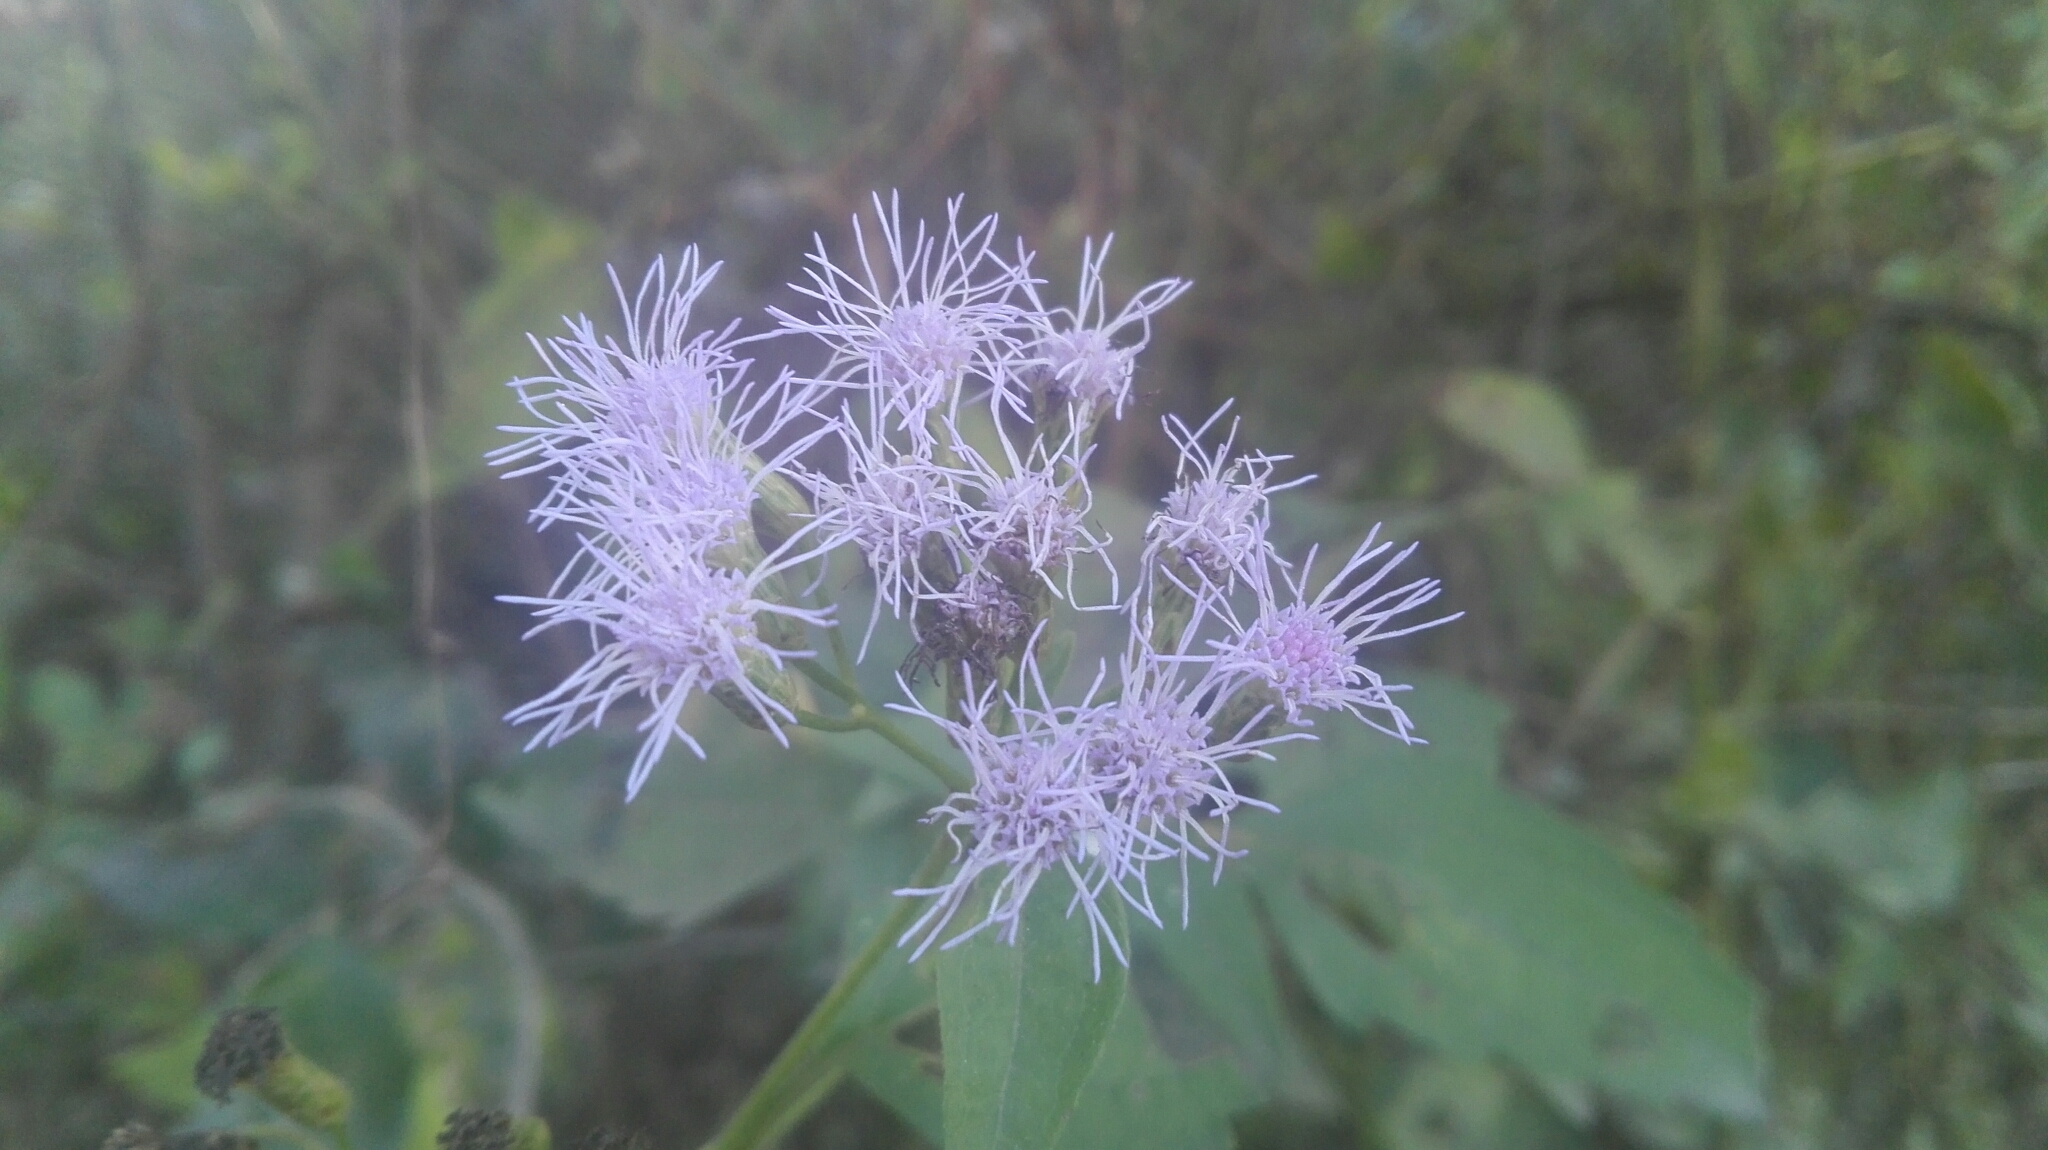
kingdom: Plantae
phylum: Tracheophyta
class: Magnoliopsida
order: Asterales
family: Asteraceae
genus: Chromolaena
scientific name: Chromolaena odorata
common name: Siamweed
